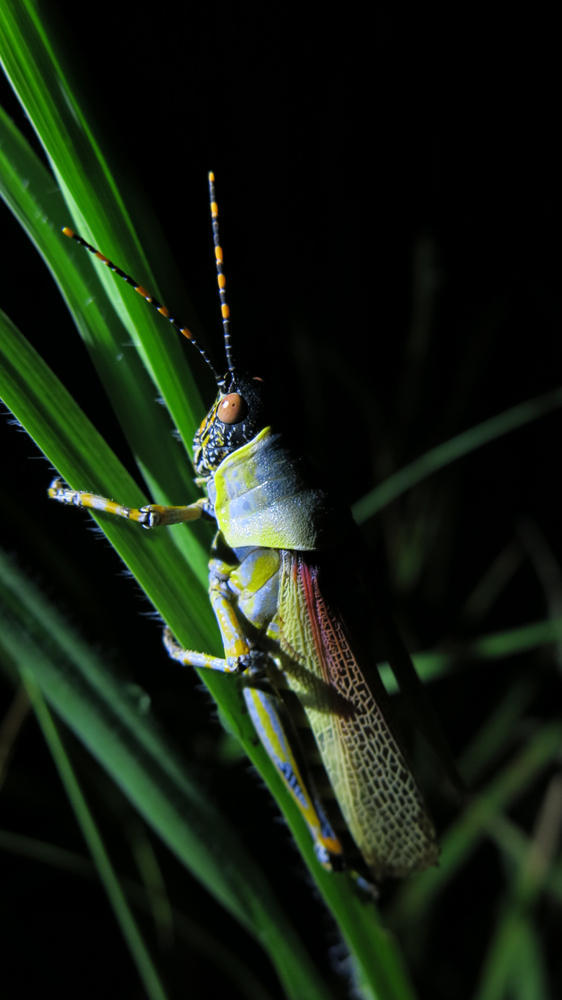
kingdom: Animalia
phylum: Arthropoda
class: Insecta
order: Orthoptera
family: Pyrgomorphidae
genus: Zonocerus
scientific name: Zonocerus elegans
